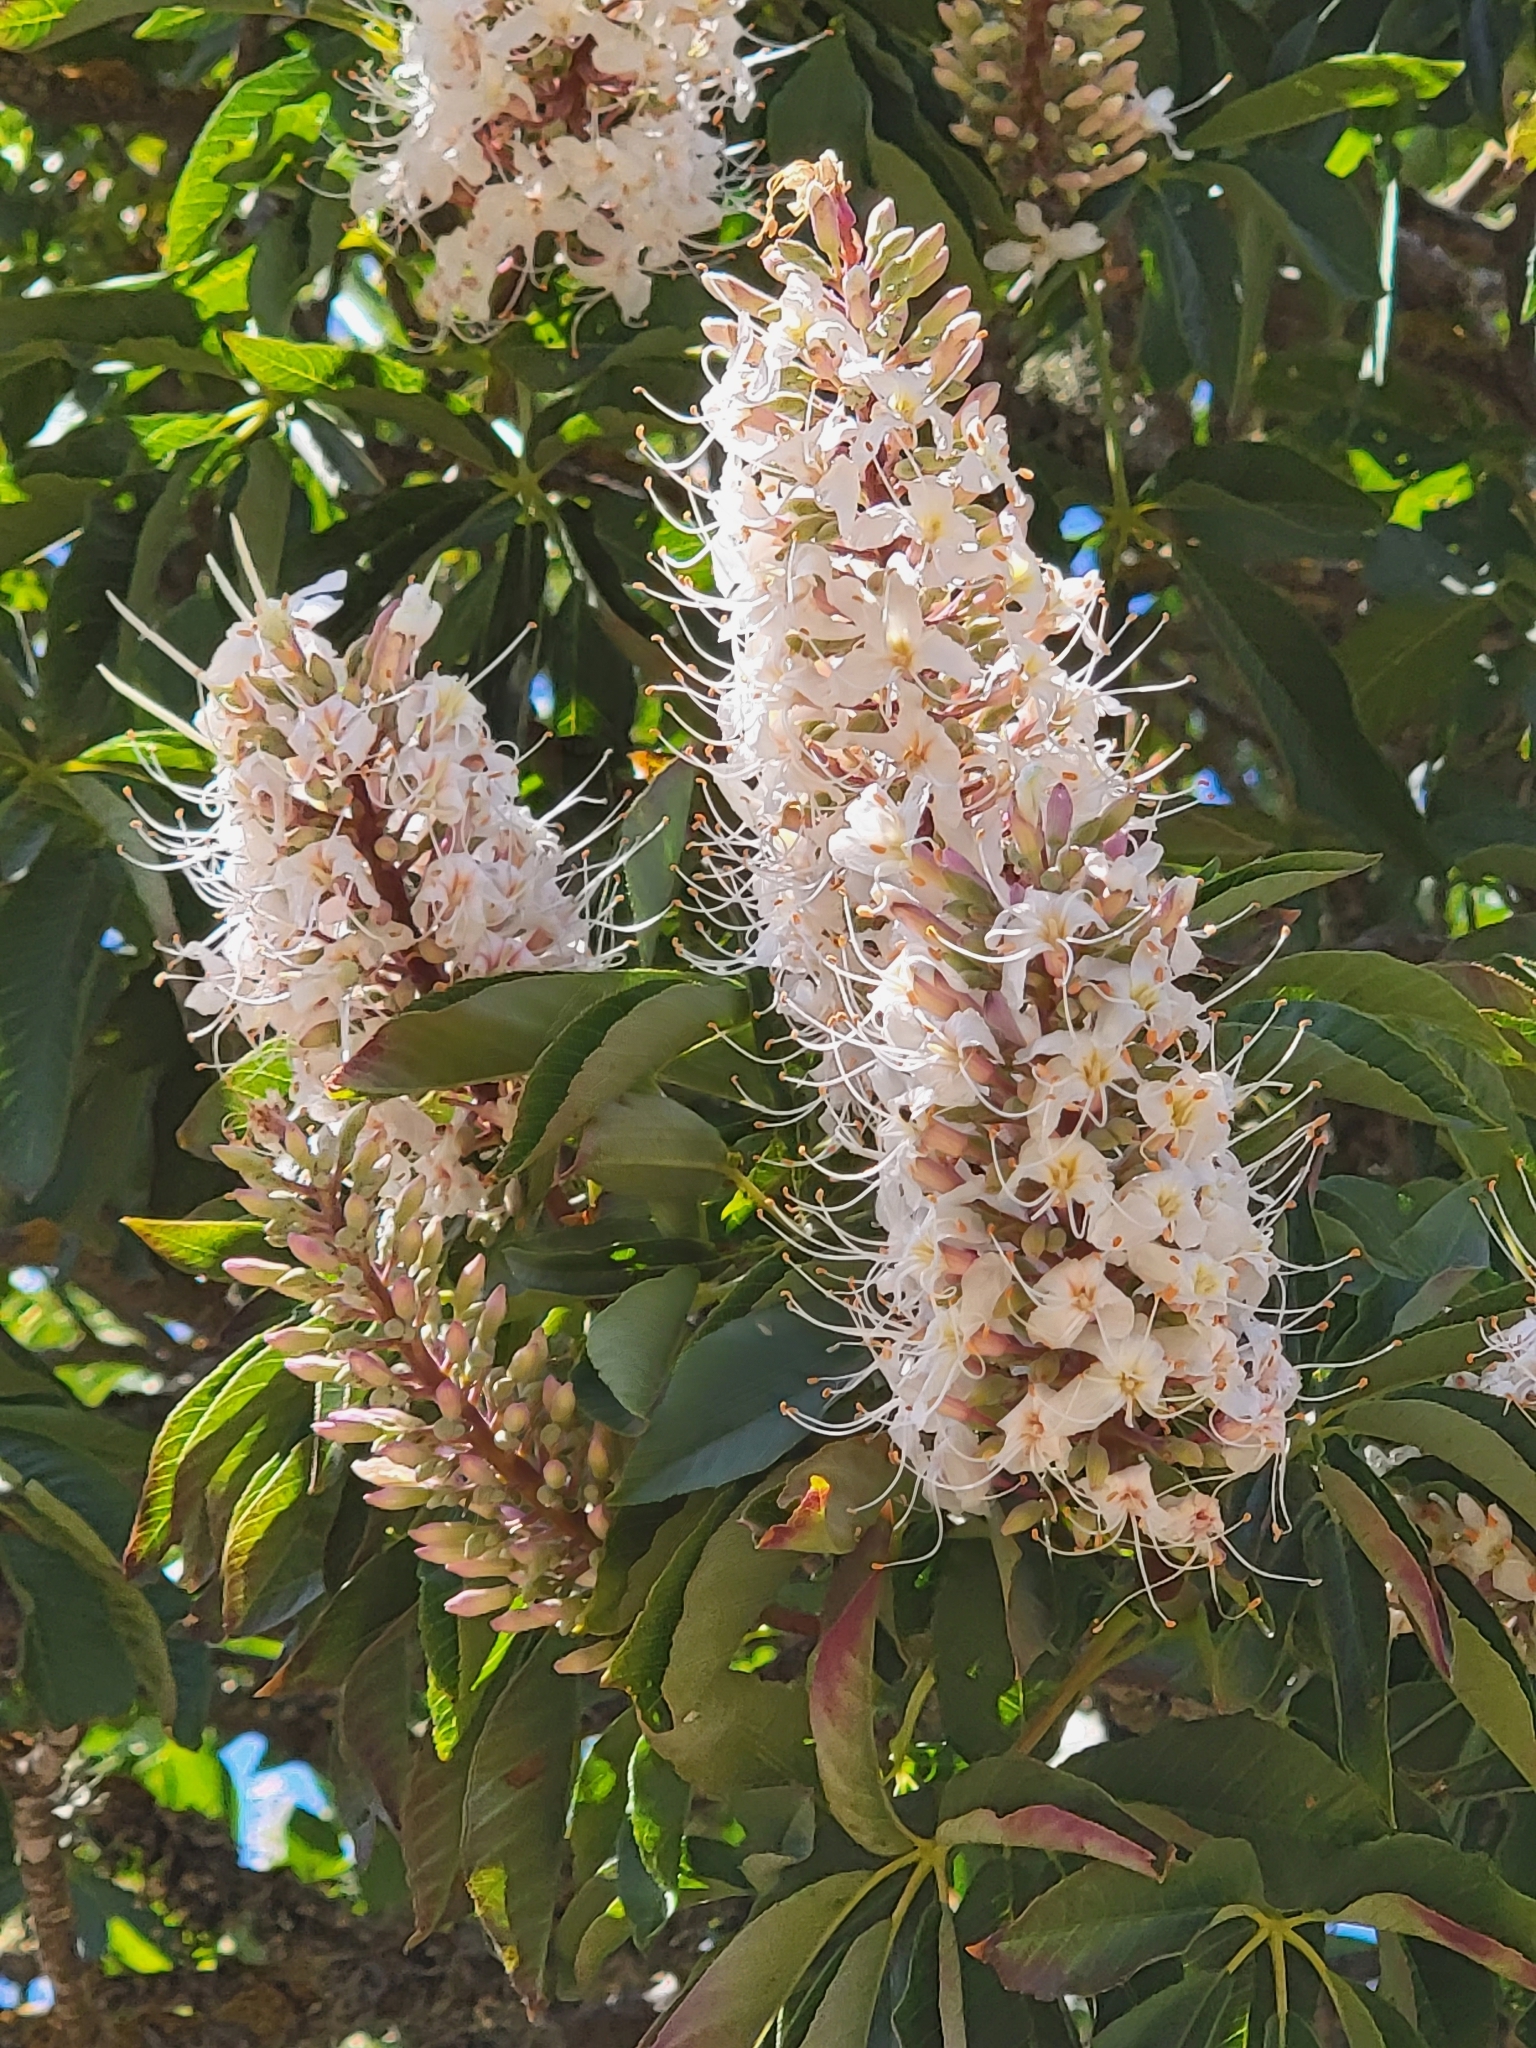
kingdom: Plantae
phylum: Tracheophyta
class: Magnoliopsida
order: Sapindales
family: Sapindaceae
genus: Aesculus
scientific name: Aesculus californica
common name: California buckeye
